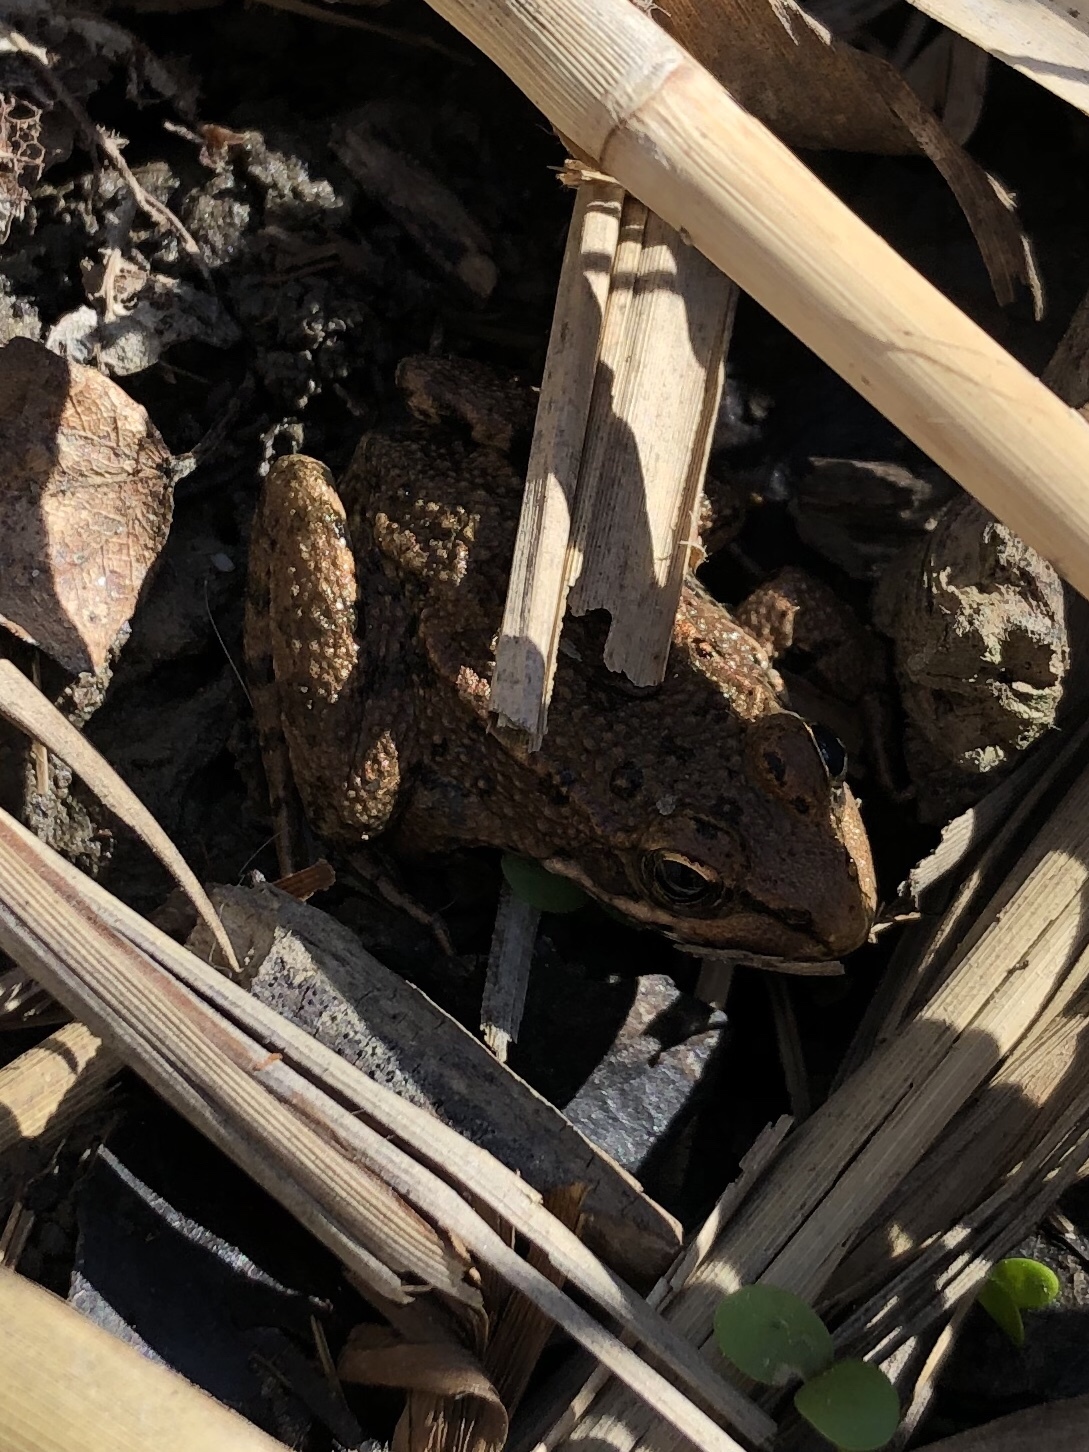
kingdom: Animalia
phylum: Chordata
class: Amphibia
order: Anura
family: Ranidae
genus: Pelophylax
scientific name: Pelophylax perezi
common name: Perez's frog
